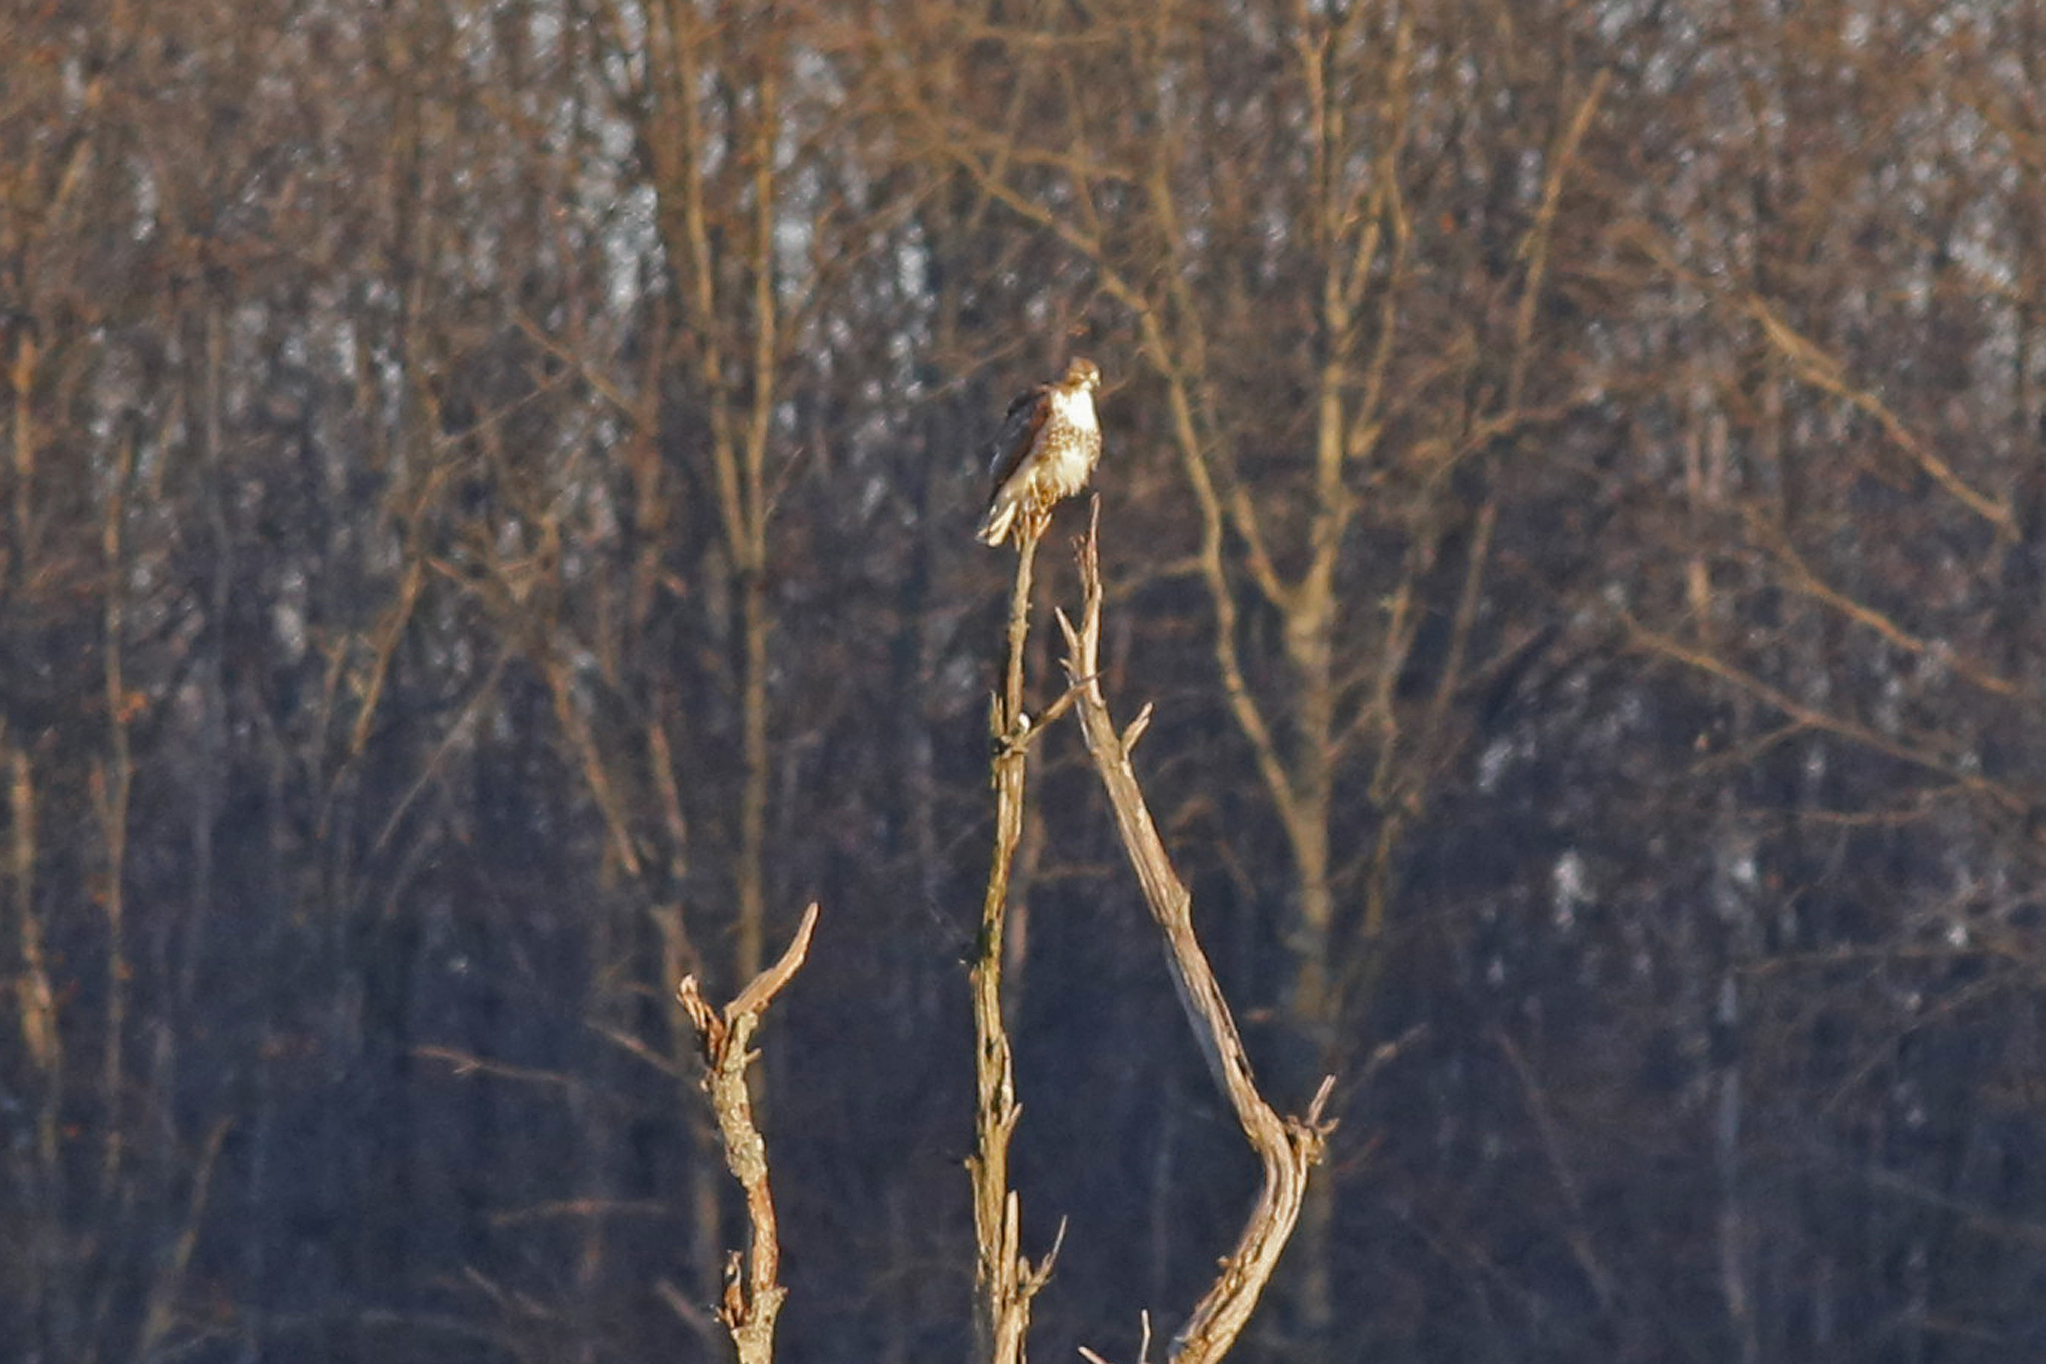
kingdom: Animalia
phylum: Chordata
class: Aves
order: Accipitriformes
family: Accipitridae
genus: Buteo
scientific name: Buteo jamaicensis
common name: Red-tailed hawk
